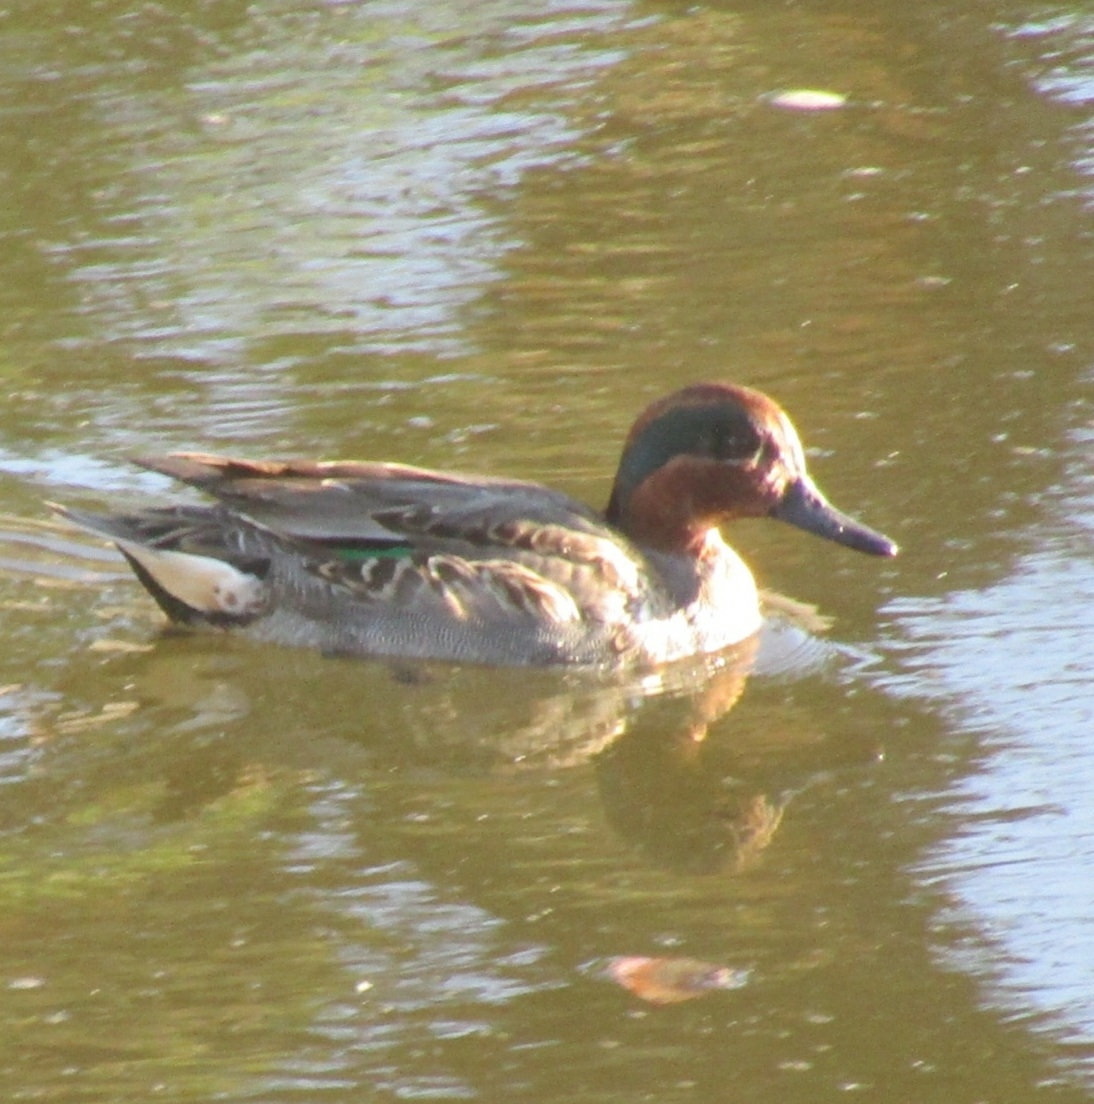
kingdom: Animalia
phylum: Chordata
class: Aves
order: Anseriformes
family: Anatidae
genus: Anas
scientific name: Anas crecca
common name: Eurasian teal
